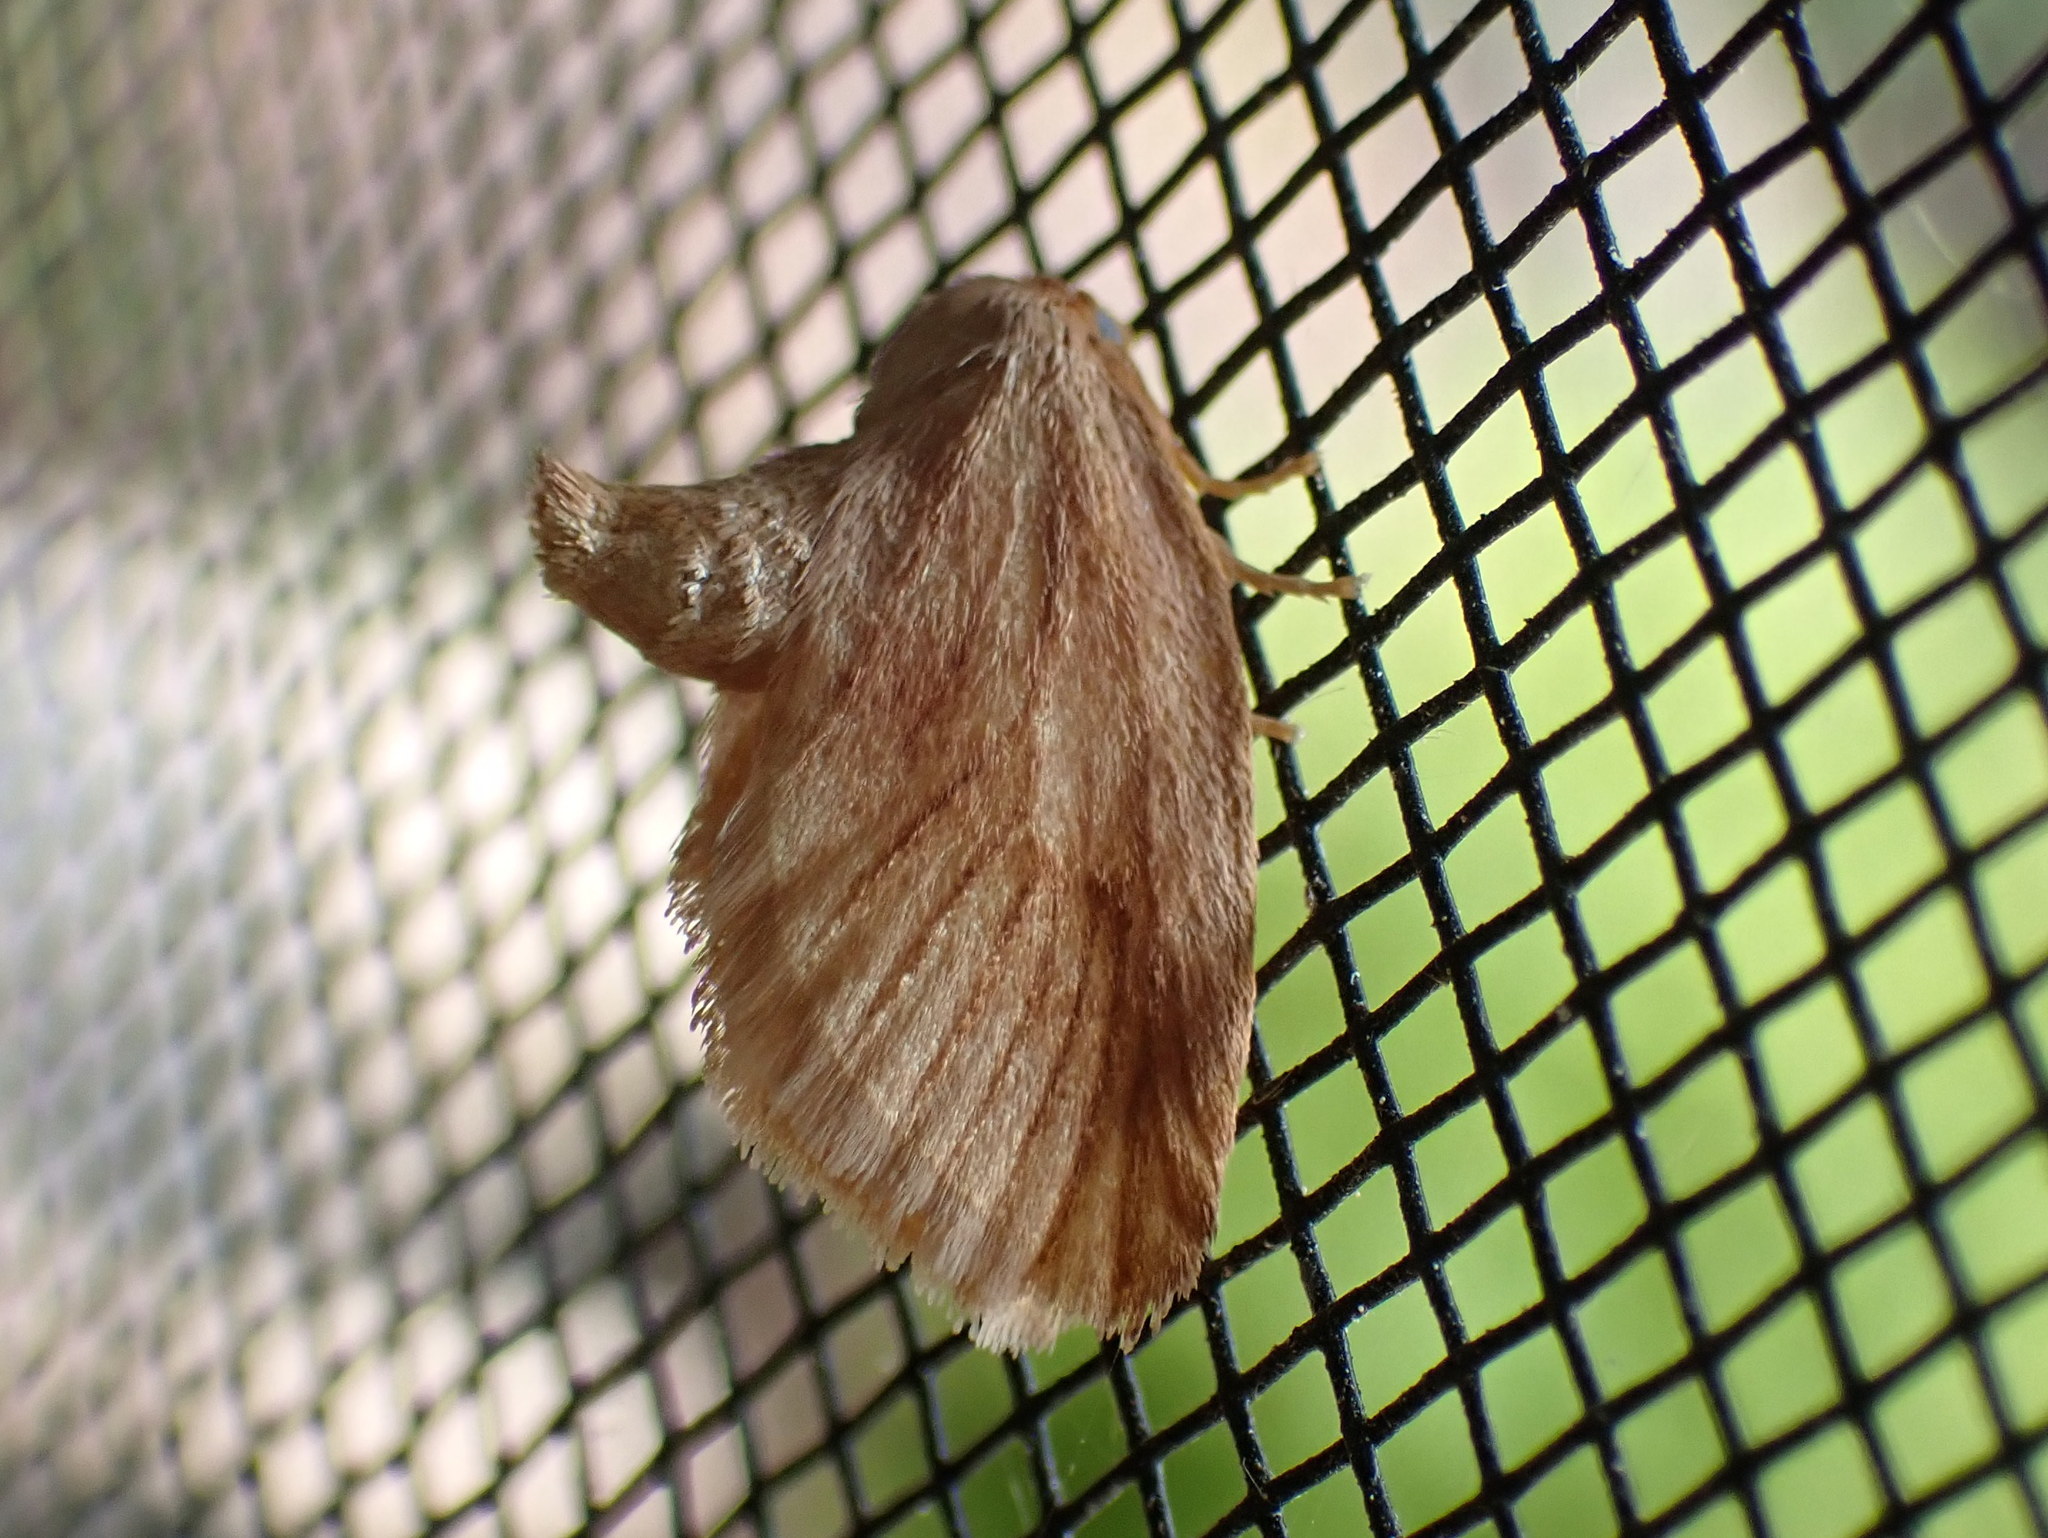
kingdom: Animalia
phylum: Arthropoda
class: Insecta
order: Lepidoptera
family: Limacodidae
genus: Tortricidia
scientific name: Tortricidia testacea
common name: Early button slug moth
